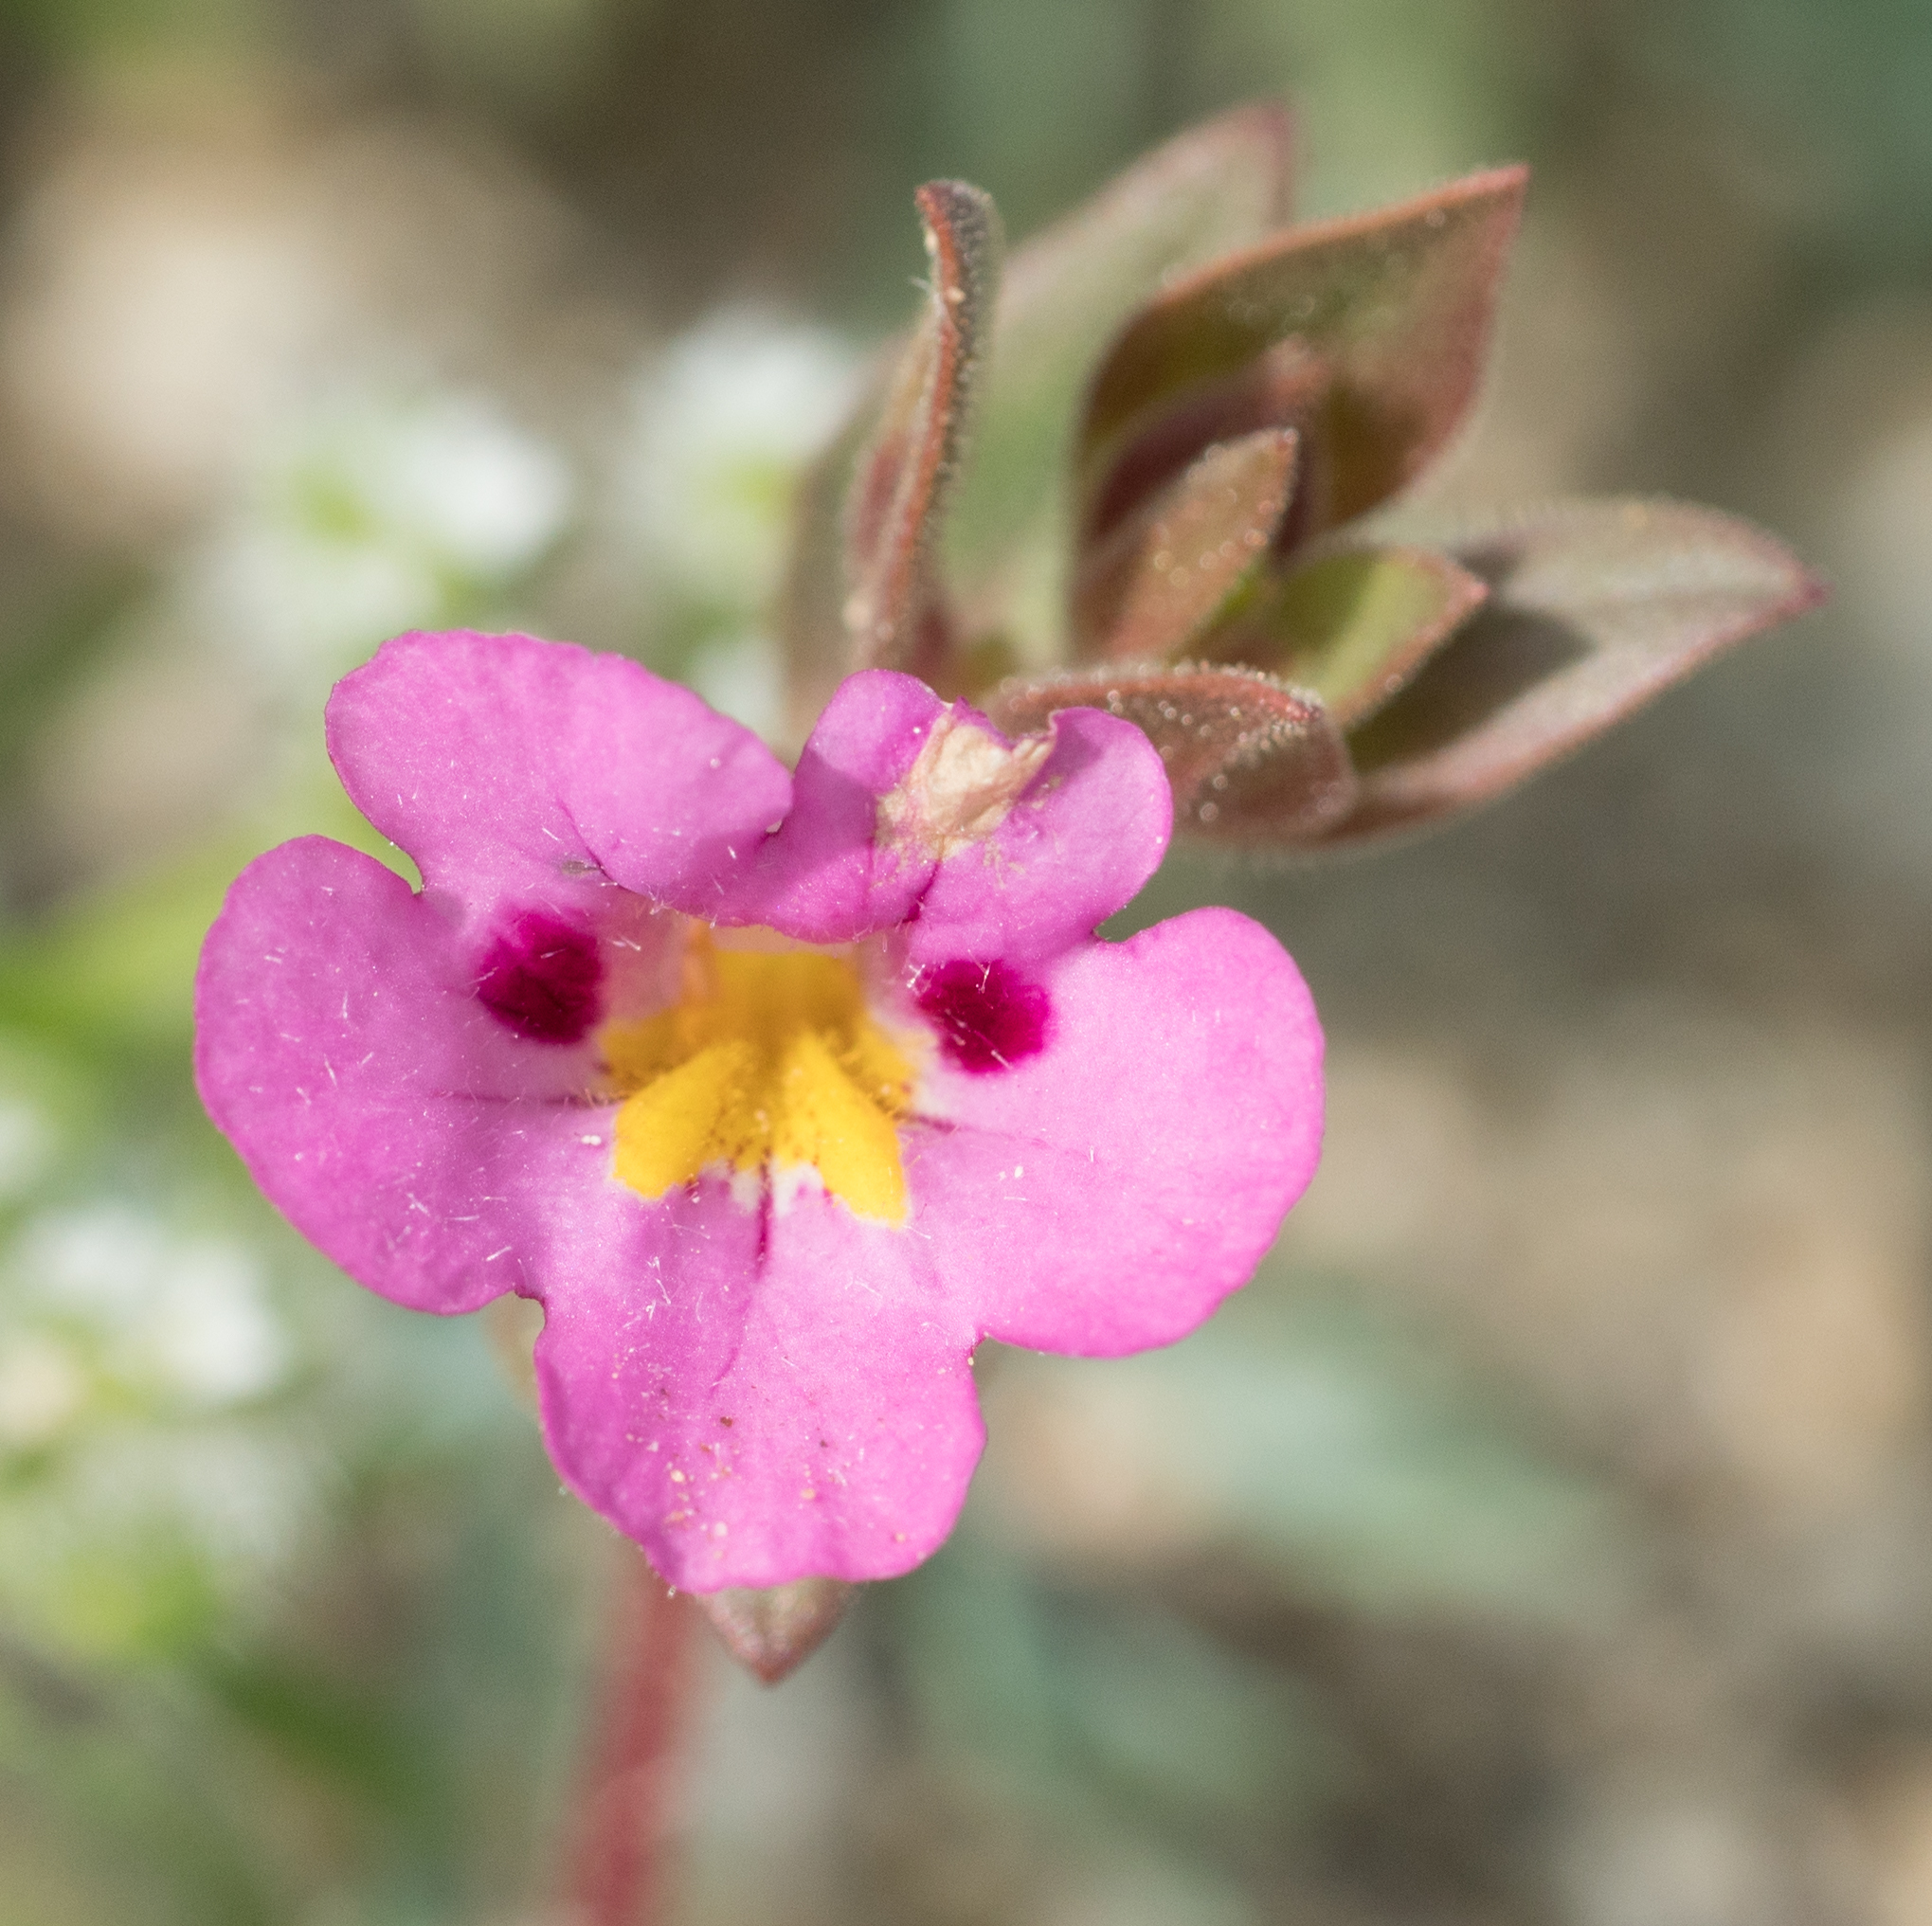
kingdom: Plantae
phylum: Tracheophyta
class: Magnoliopsida
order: Lamiales
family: Phrymaceae
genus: Diplacus
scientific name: Diplacus bigelovii
